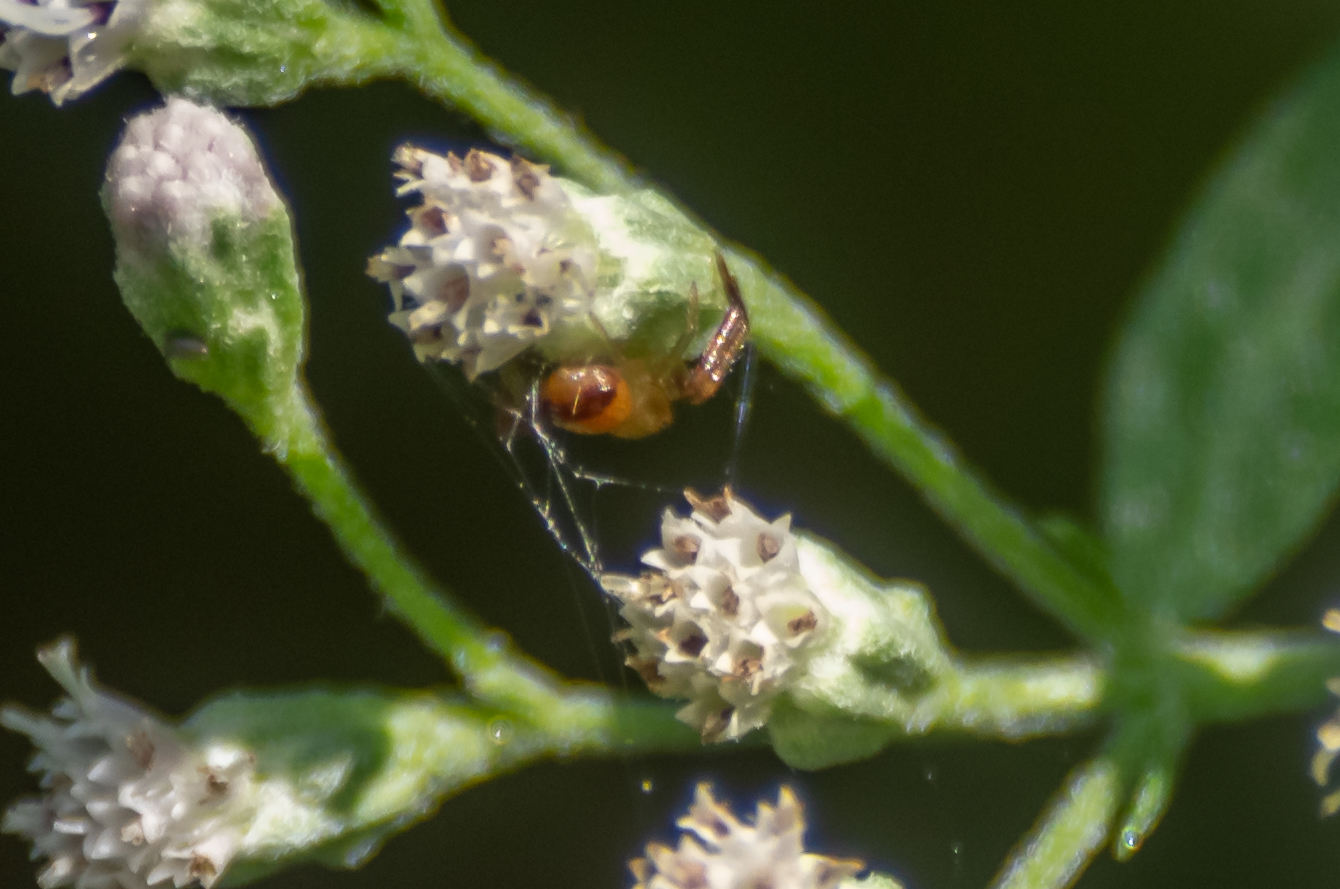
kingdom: Animalia
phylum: Arthropoda
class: Arachnida
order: Araneae
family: Thomisidae
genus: Synema
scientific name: Synema parvulum
